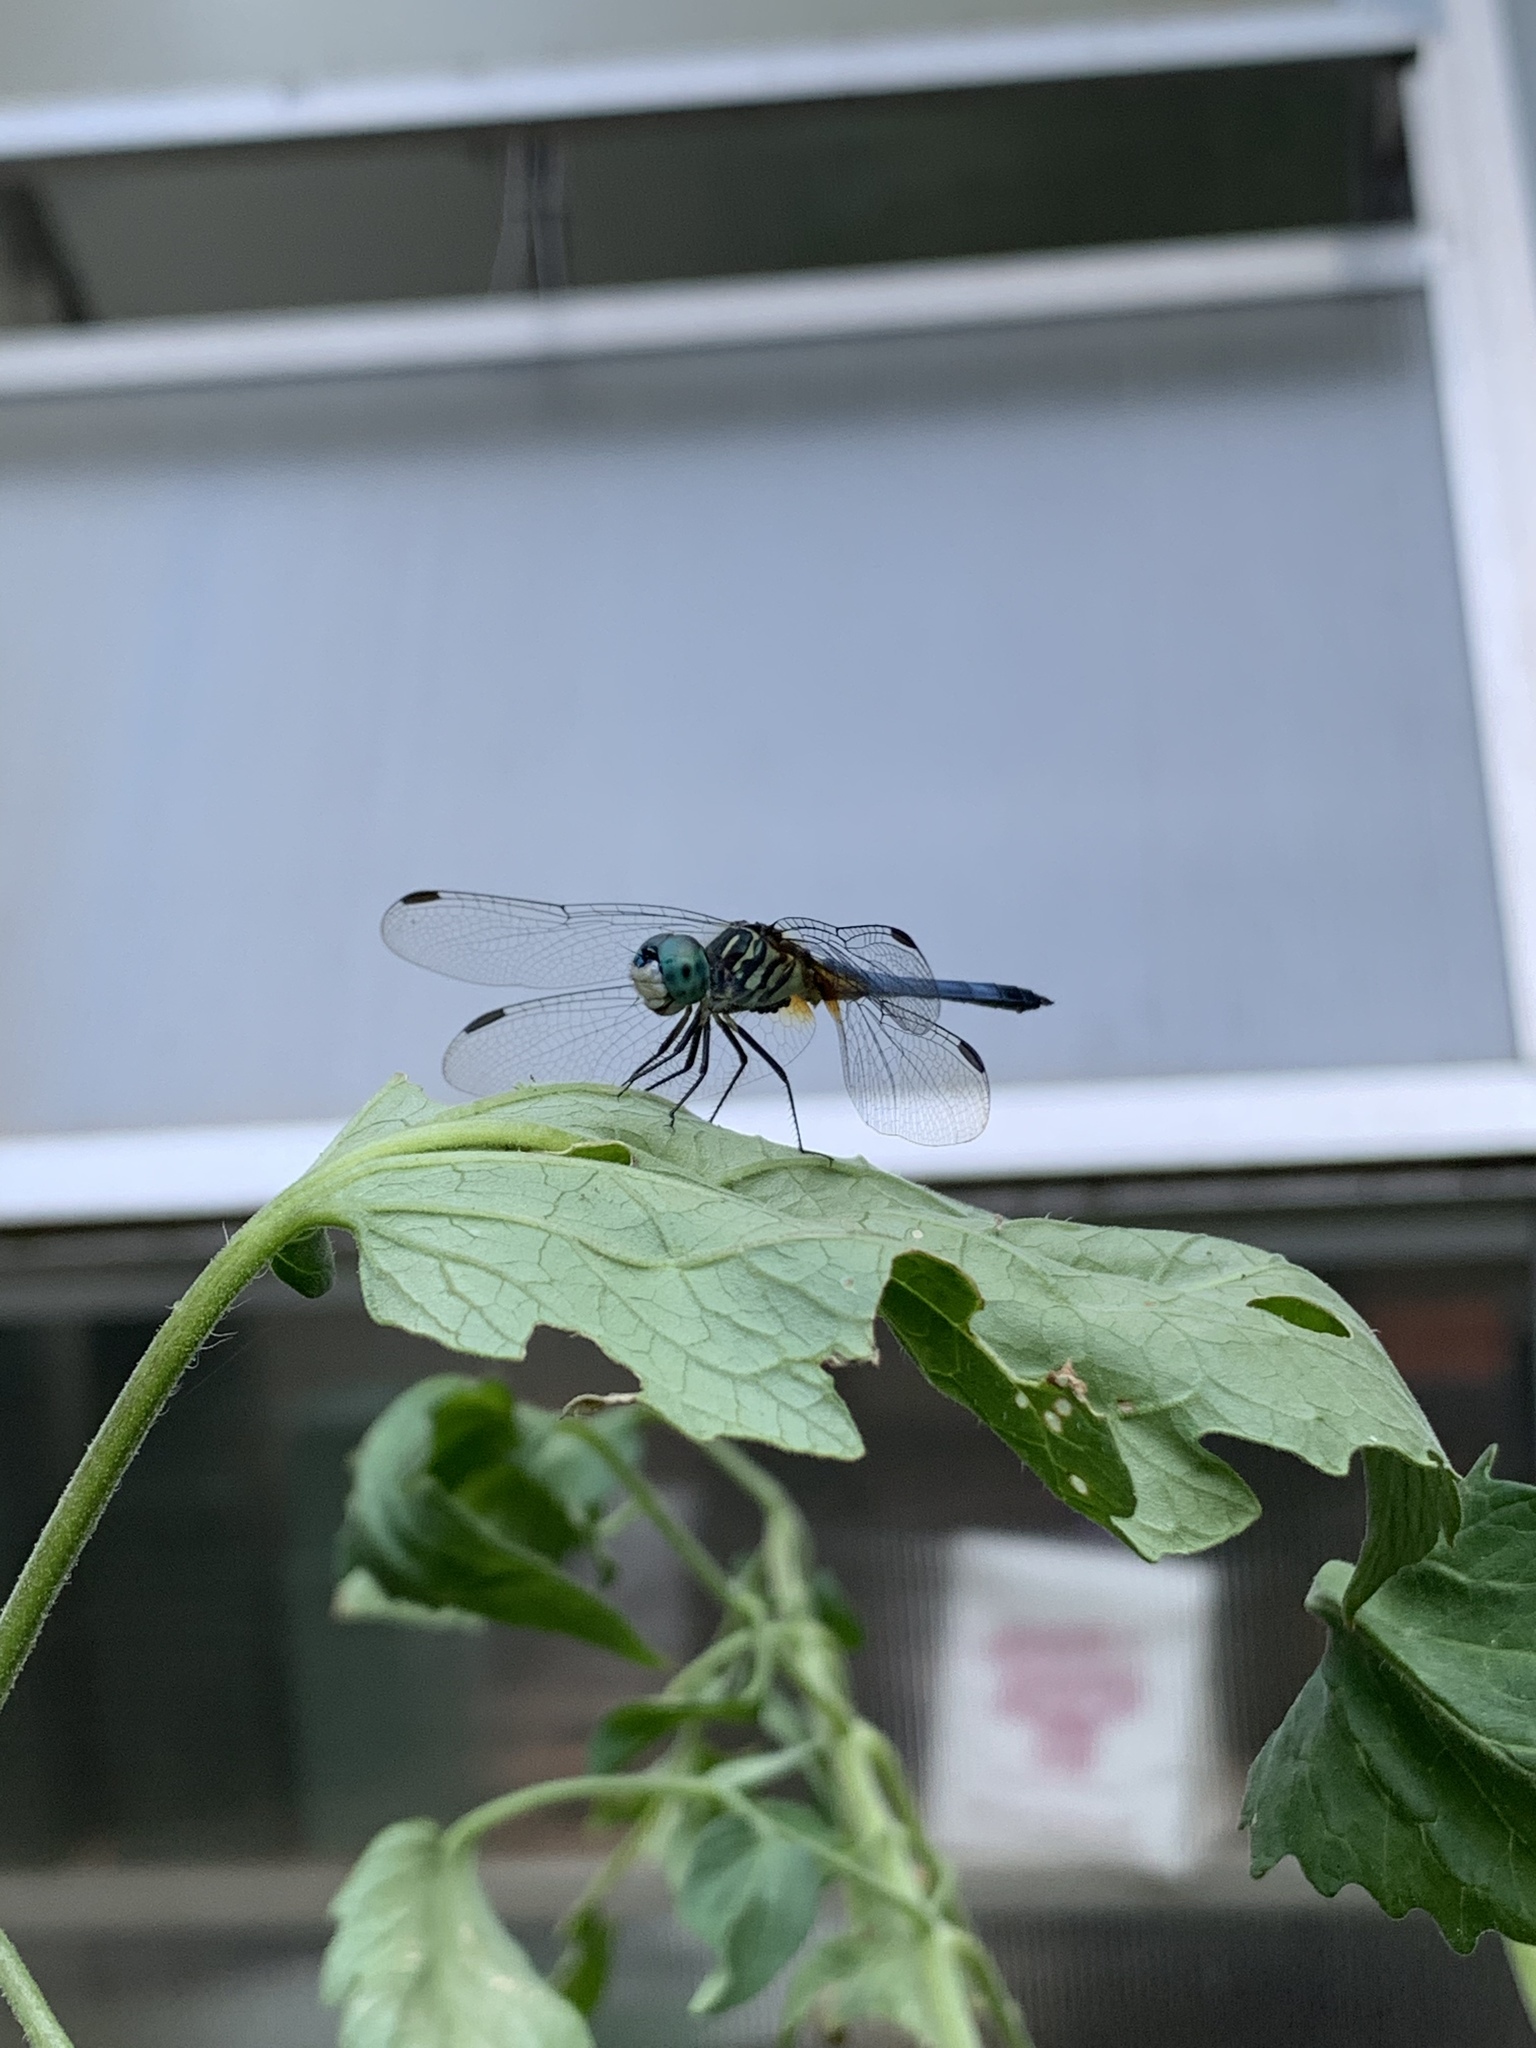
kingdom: Animalia
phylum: Arthropoda
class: Insecta
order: Odonata
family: Libellulidae
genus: Pachydiplax
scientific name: Pachydiplax longipennis
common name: Blue dasher
